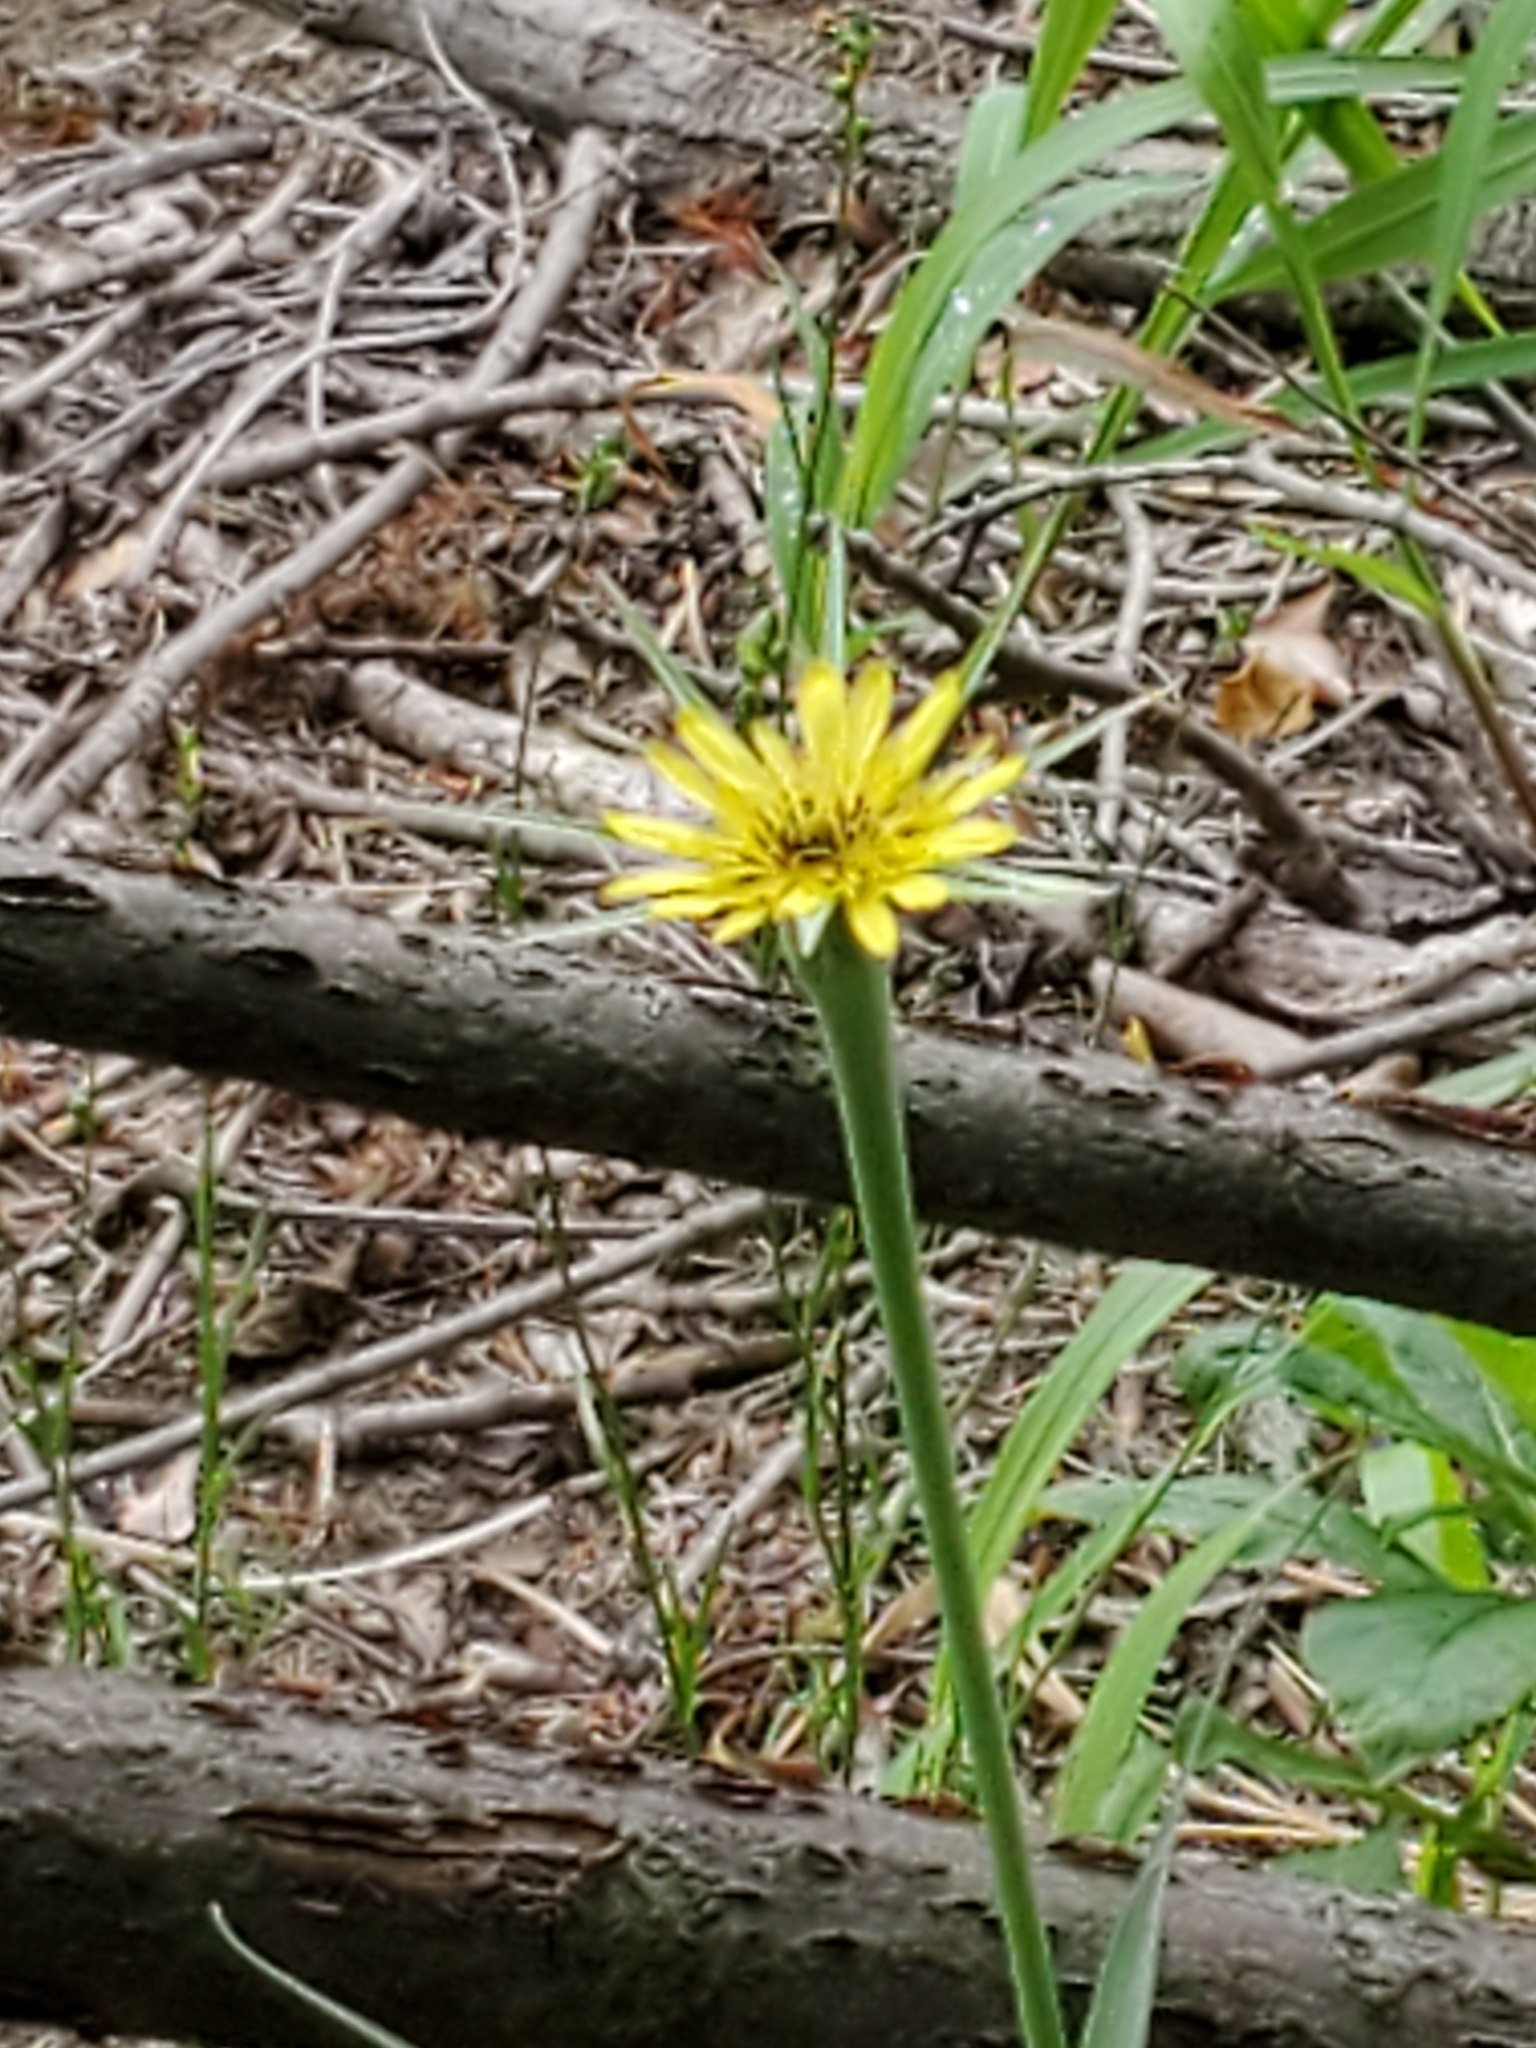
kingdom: Plantae
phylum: Tracheophyta
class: Magnoliopsida
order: Asterales
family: Asteraceae
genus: Tragopogon
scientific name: Tragopogon dubius
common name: Yellow salsify
